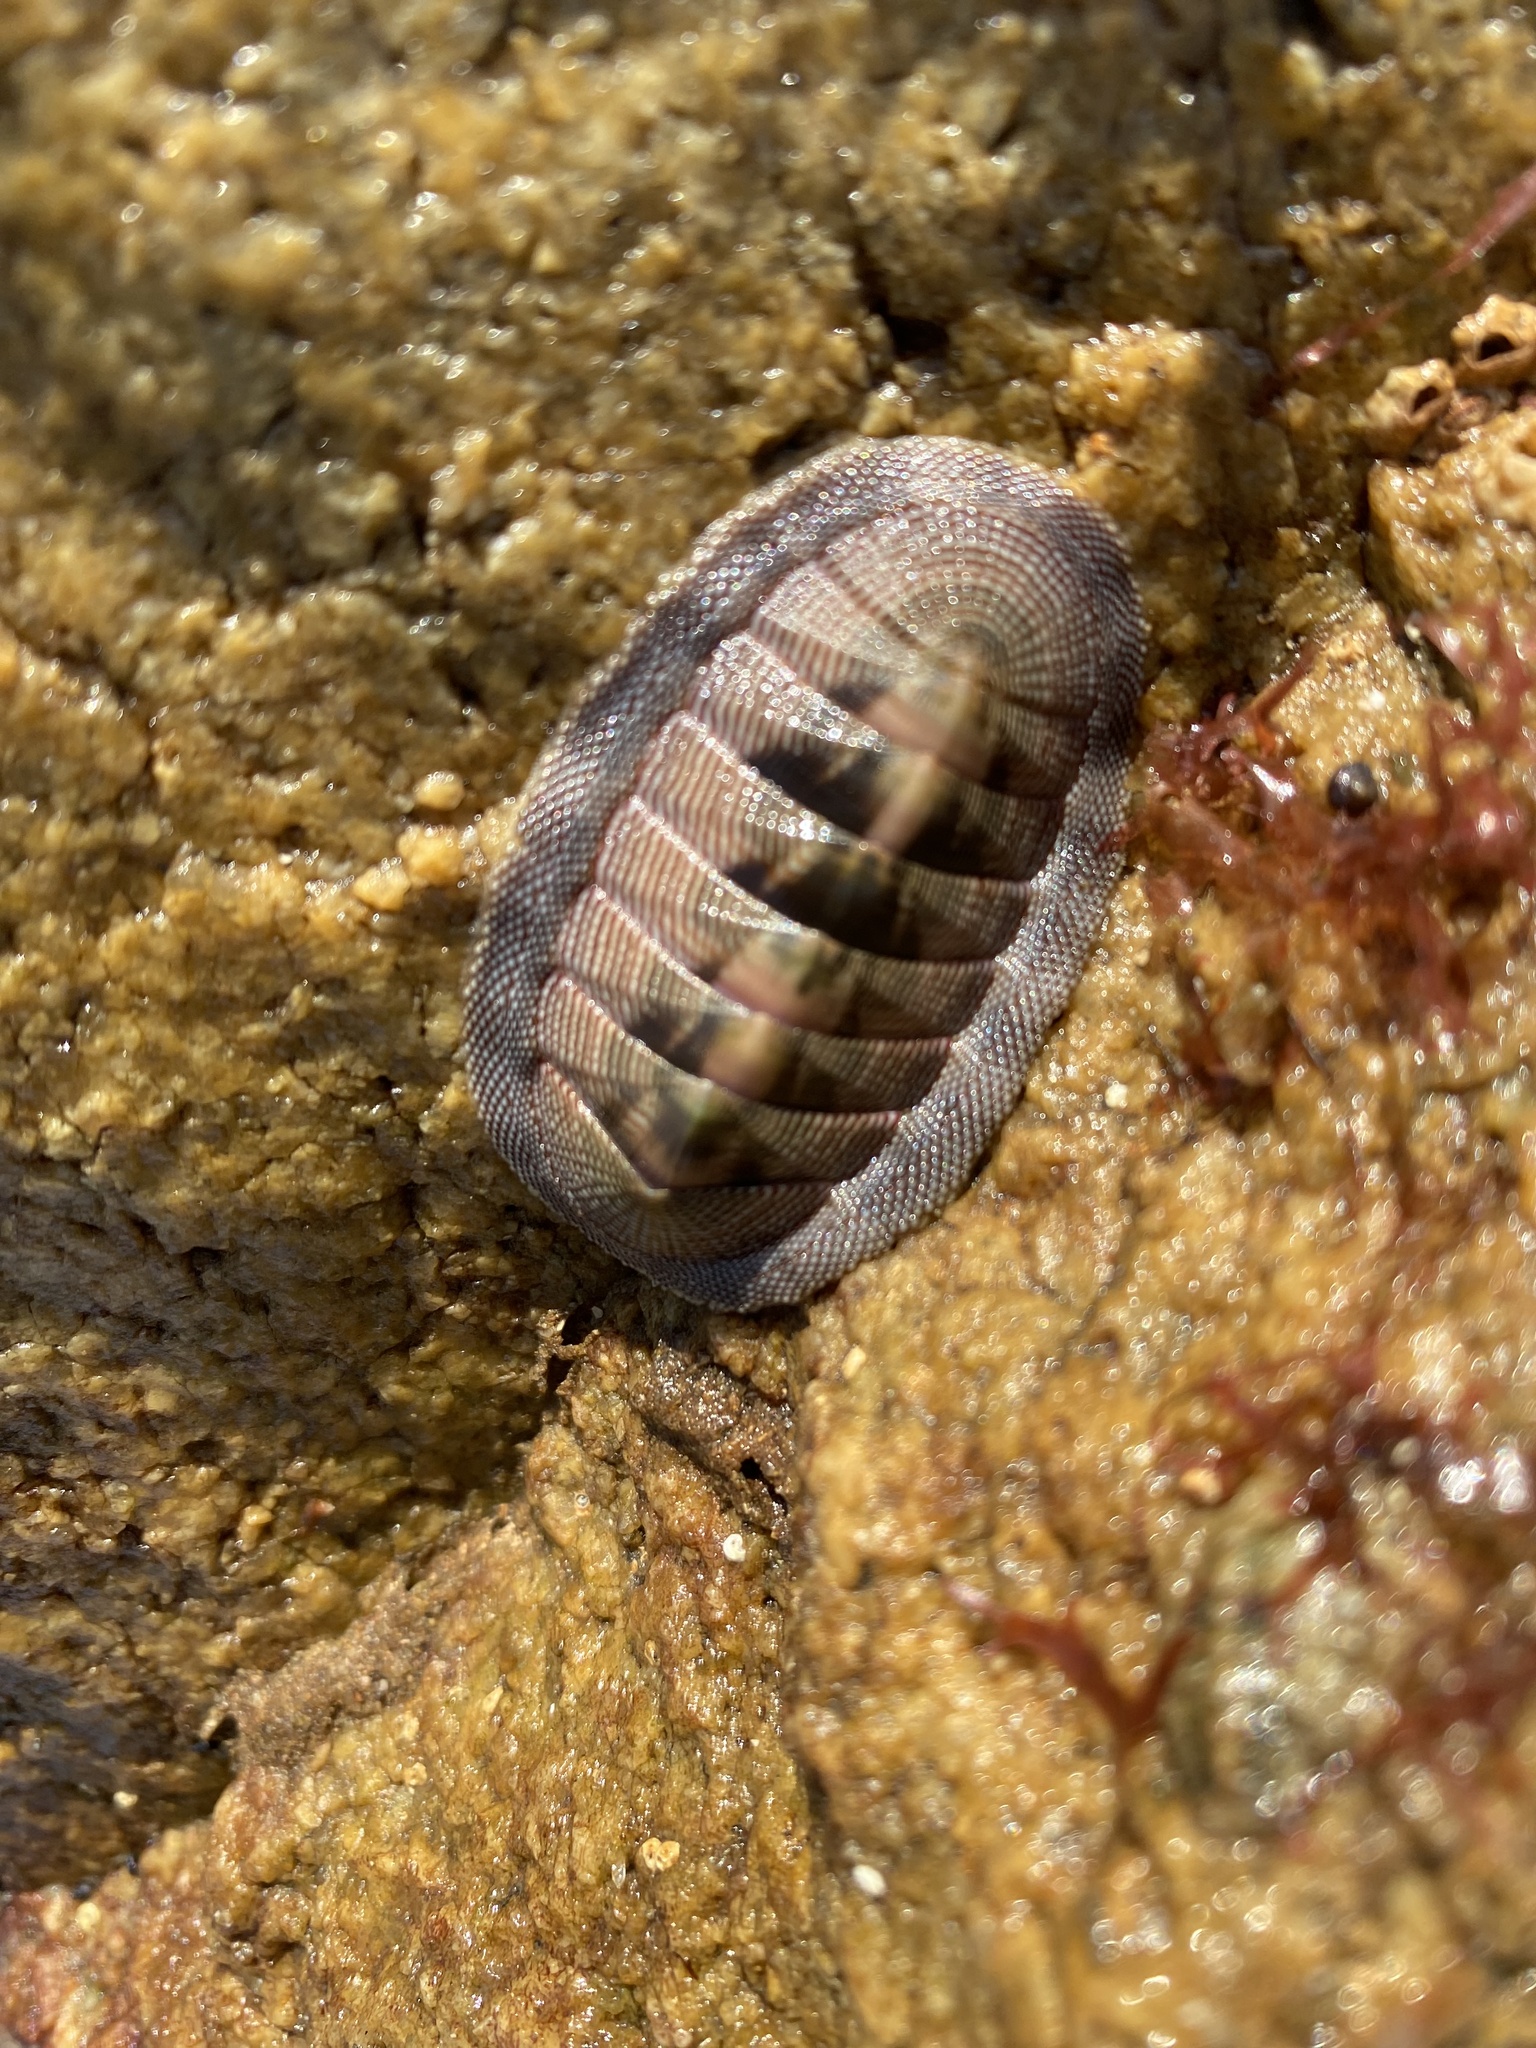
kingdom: Animalia
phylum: Mollusca
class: Polyplacophora
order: Chitonida
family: Chitonidae
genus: Chiton
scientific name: Chiton cumingsii
